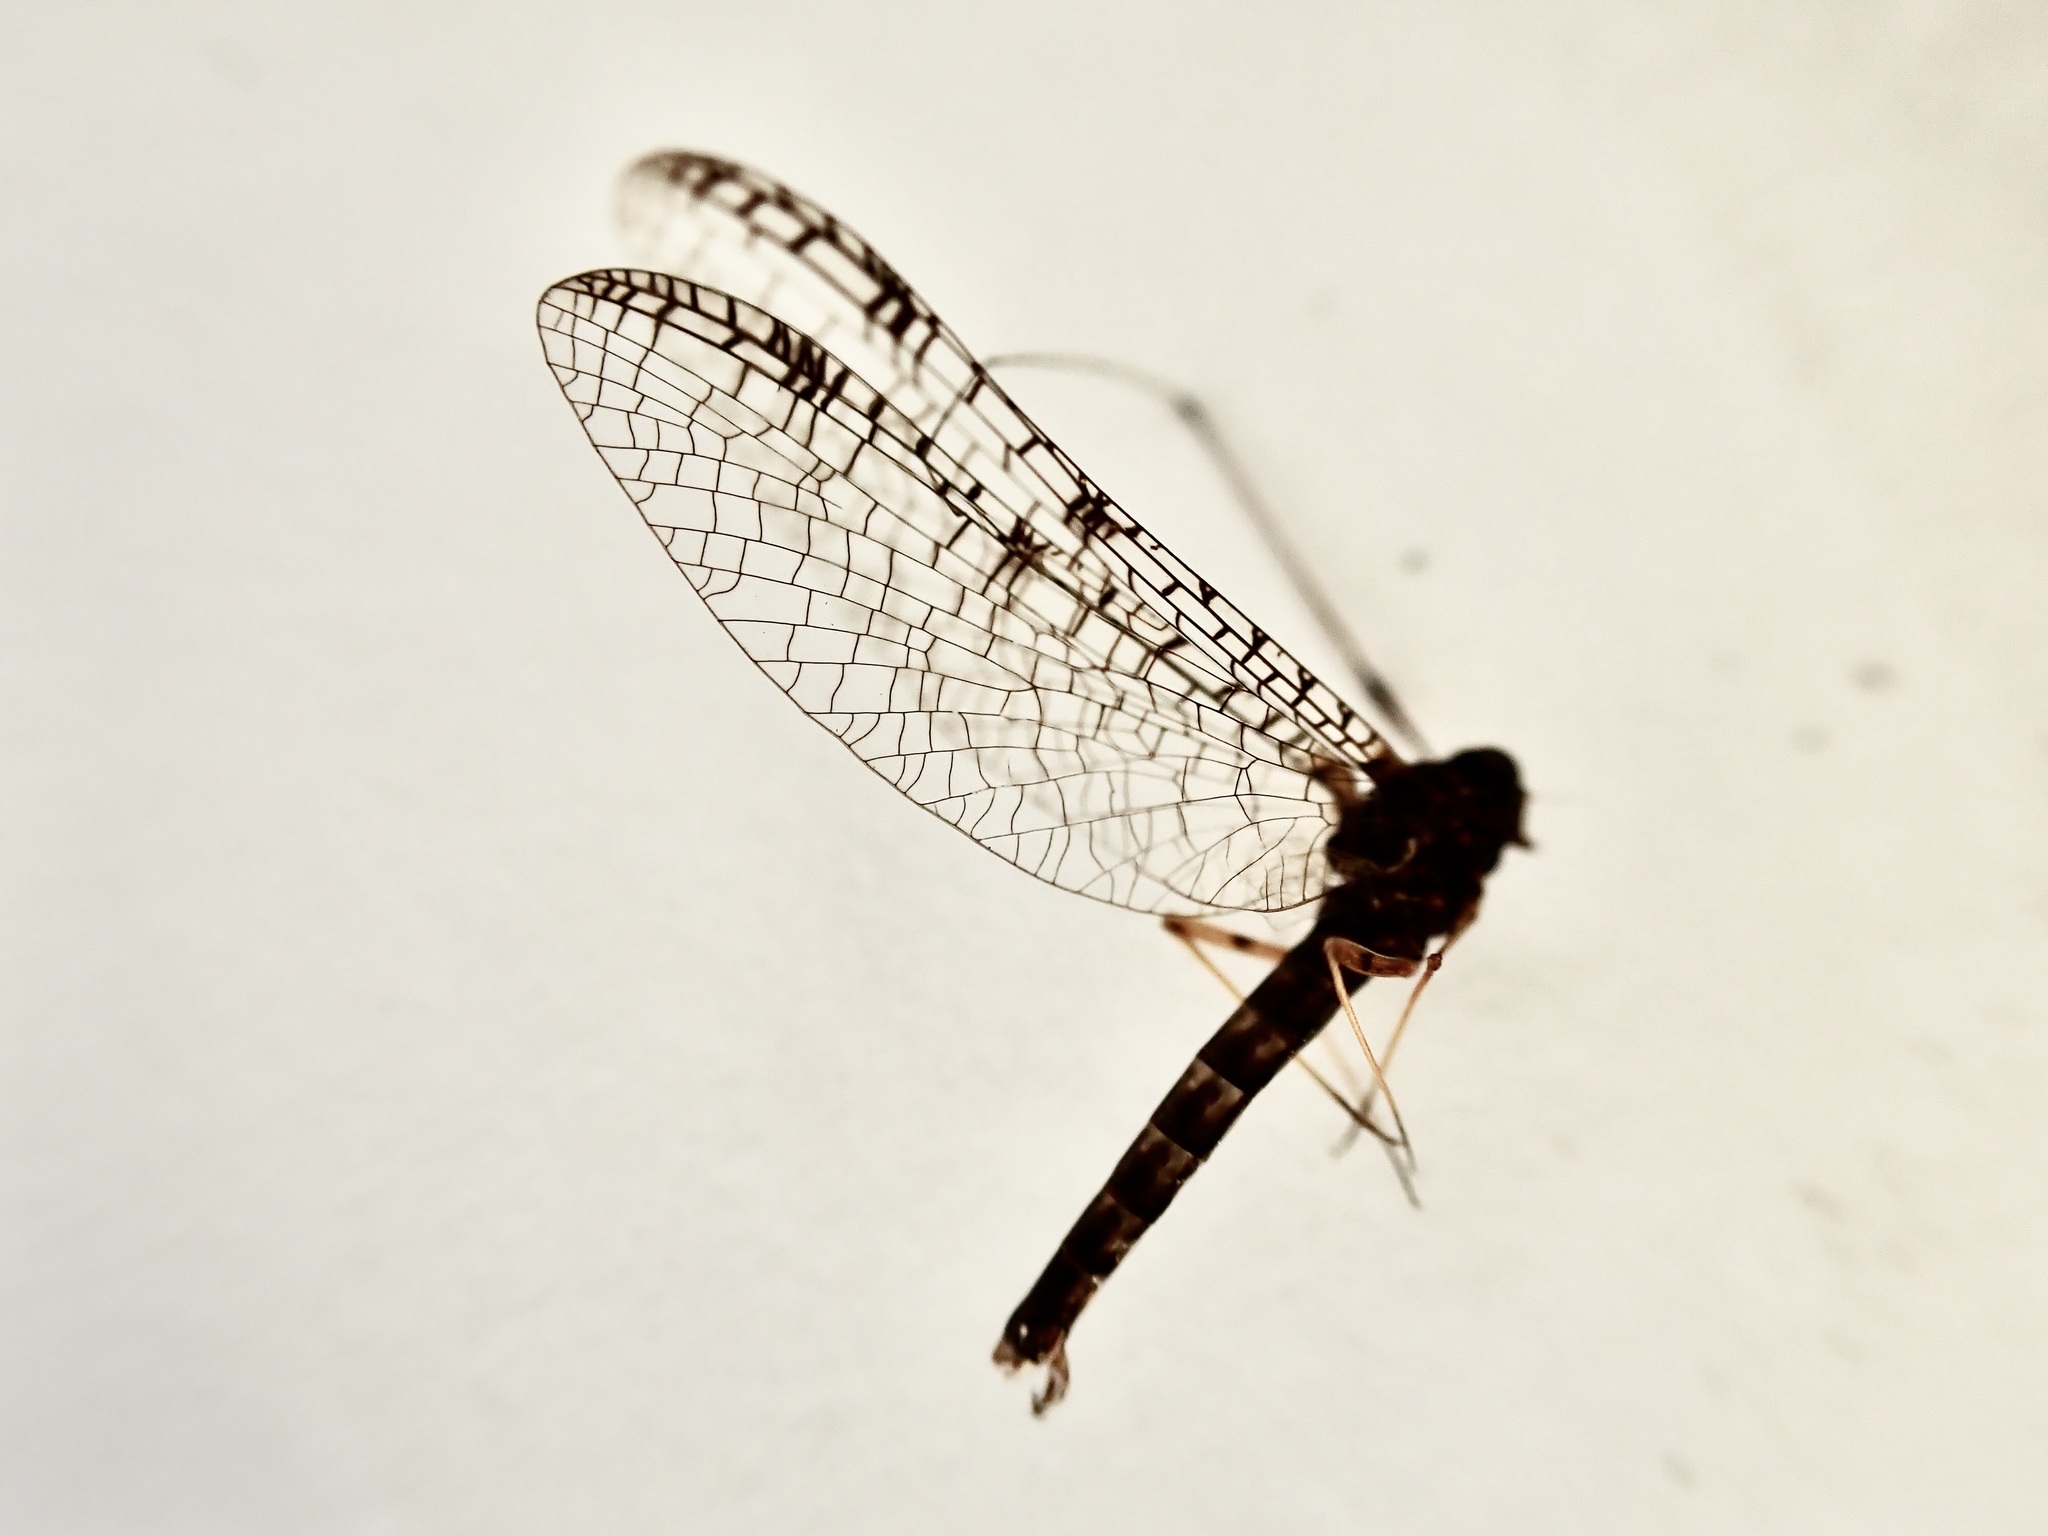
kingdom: Animalia
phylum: Arthropoda
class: Insecta
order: Ephemeroptera
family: Leptophlebiidae
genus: Neozephlebia
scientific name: Neozephlebia scita
